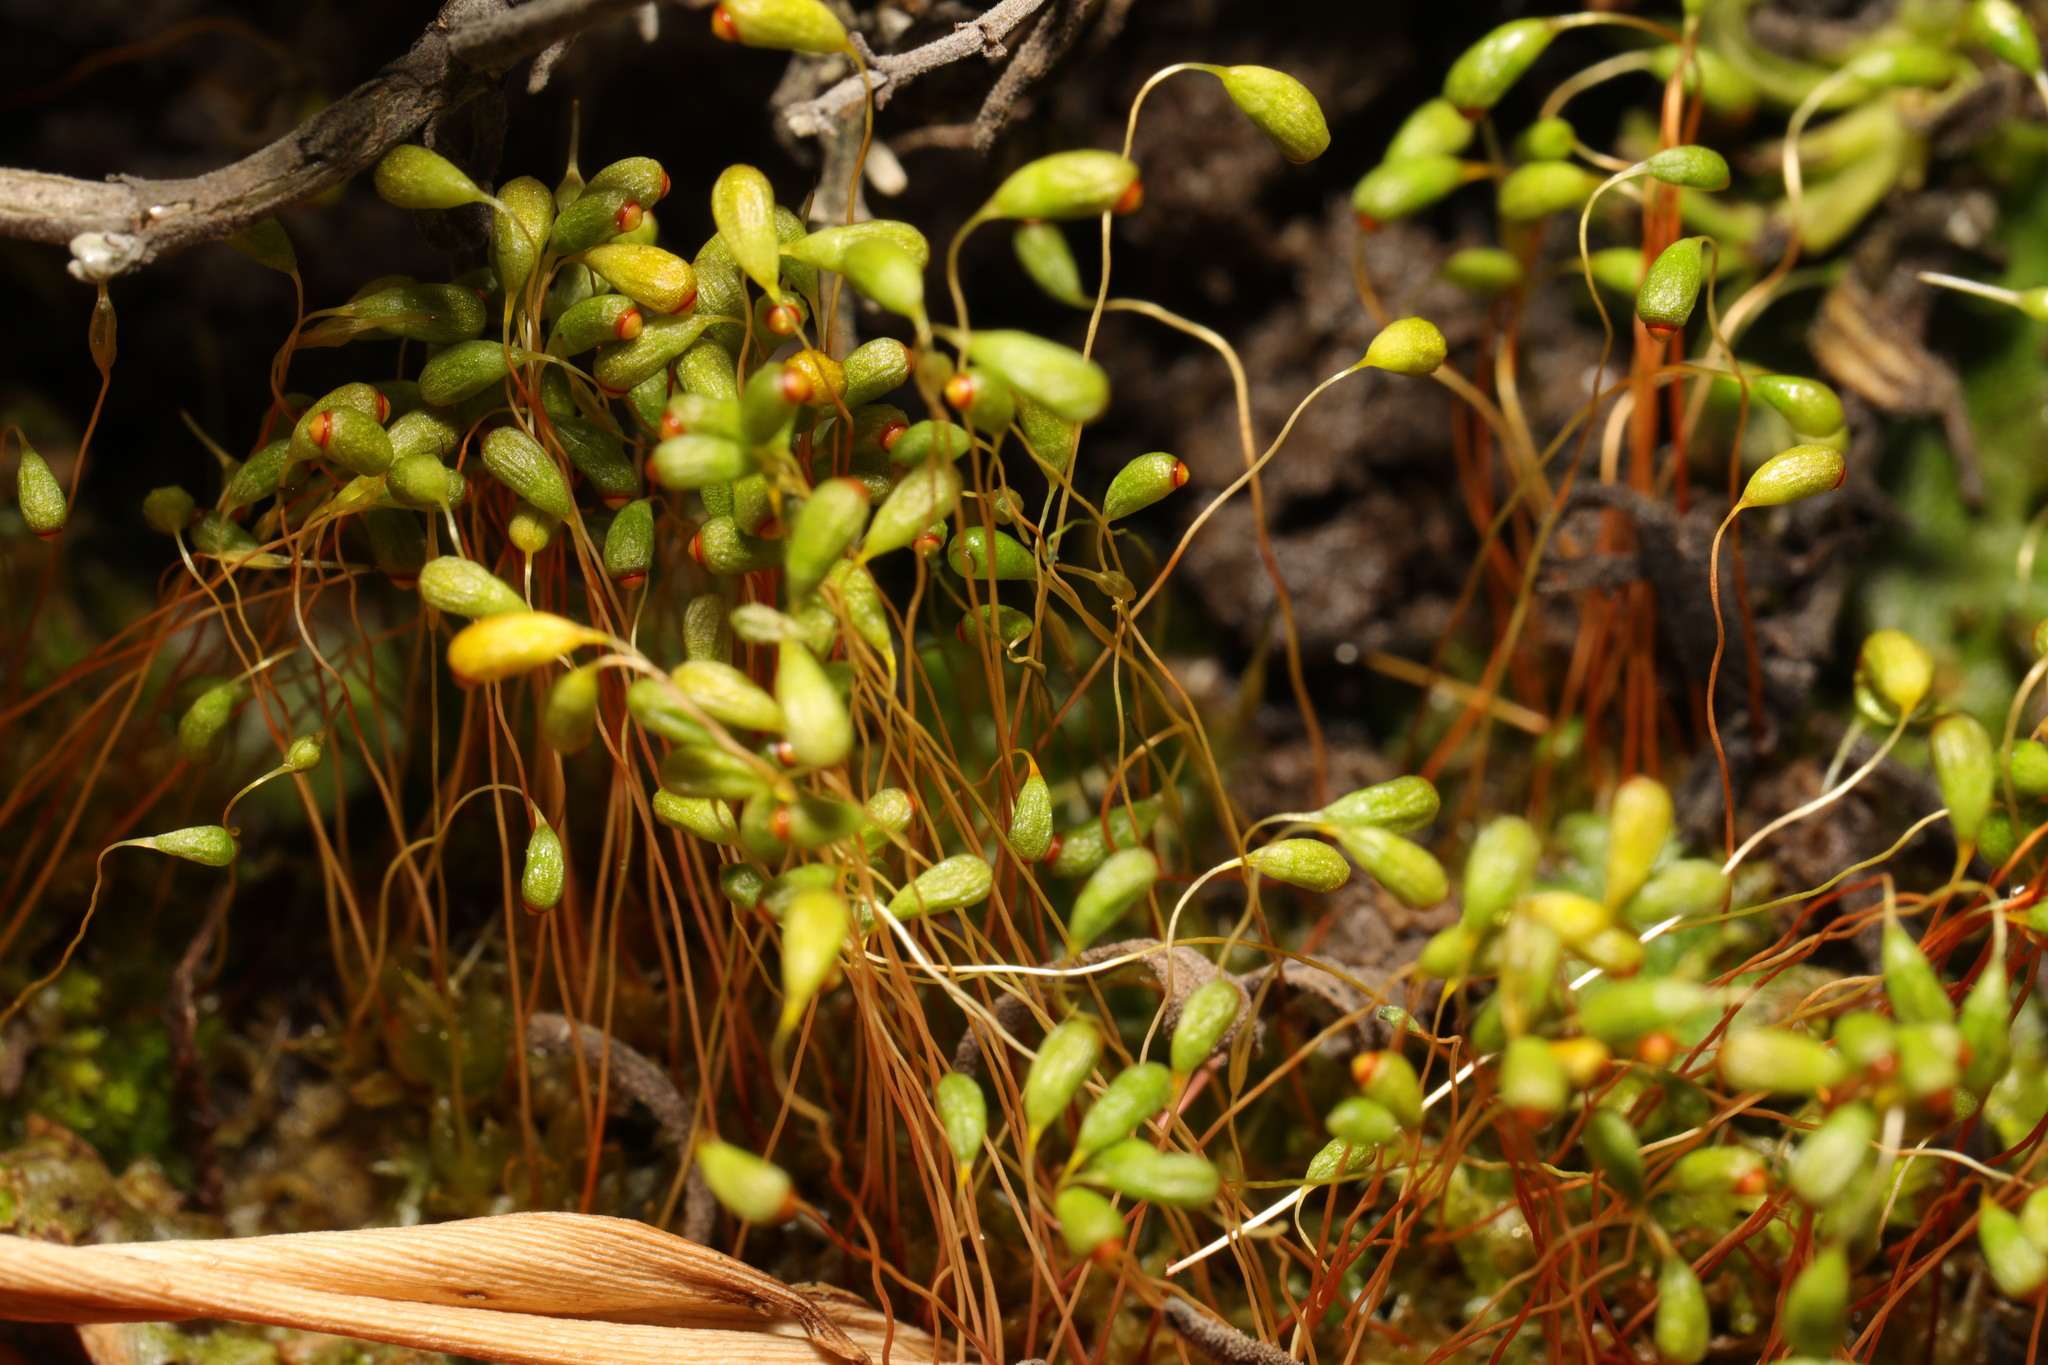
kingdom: Plantae
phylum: Bryophyta
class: Bryopsida
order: Funariales
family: Funariaceae
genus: Funaria
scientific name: Funaria hygrometrica
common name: Common cord moss
